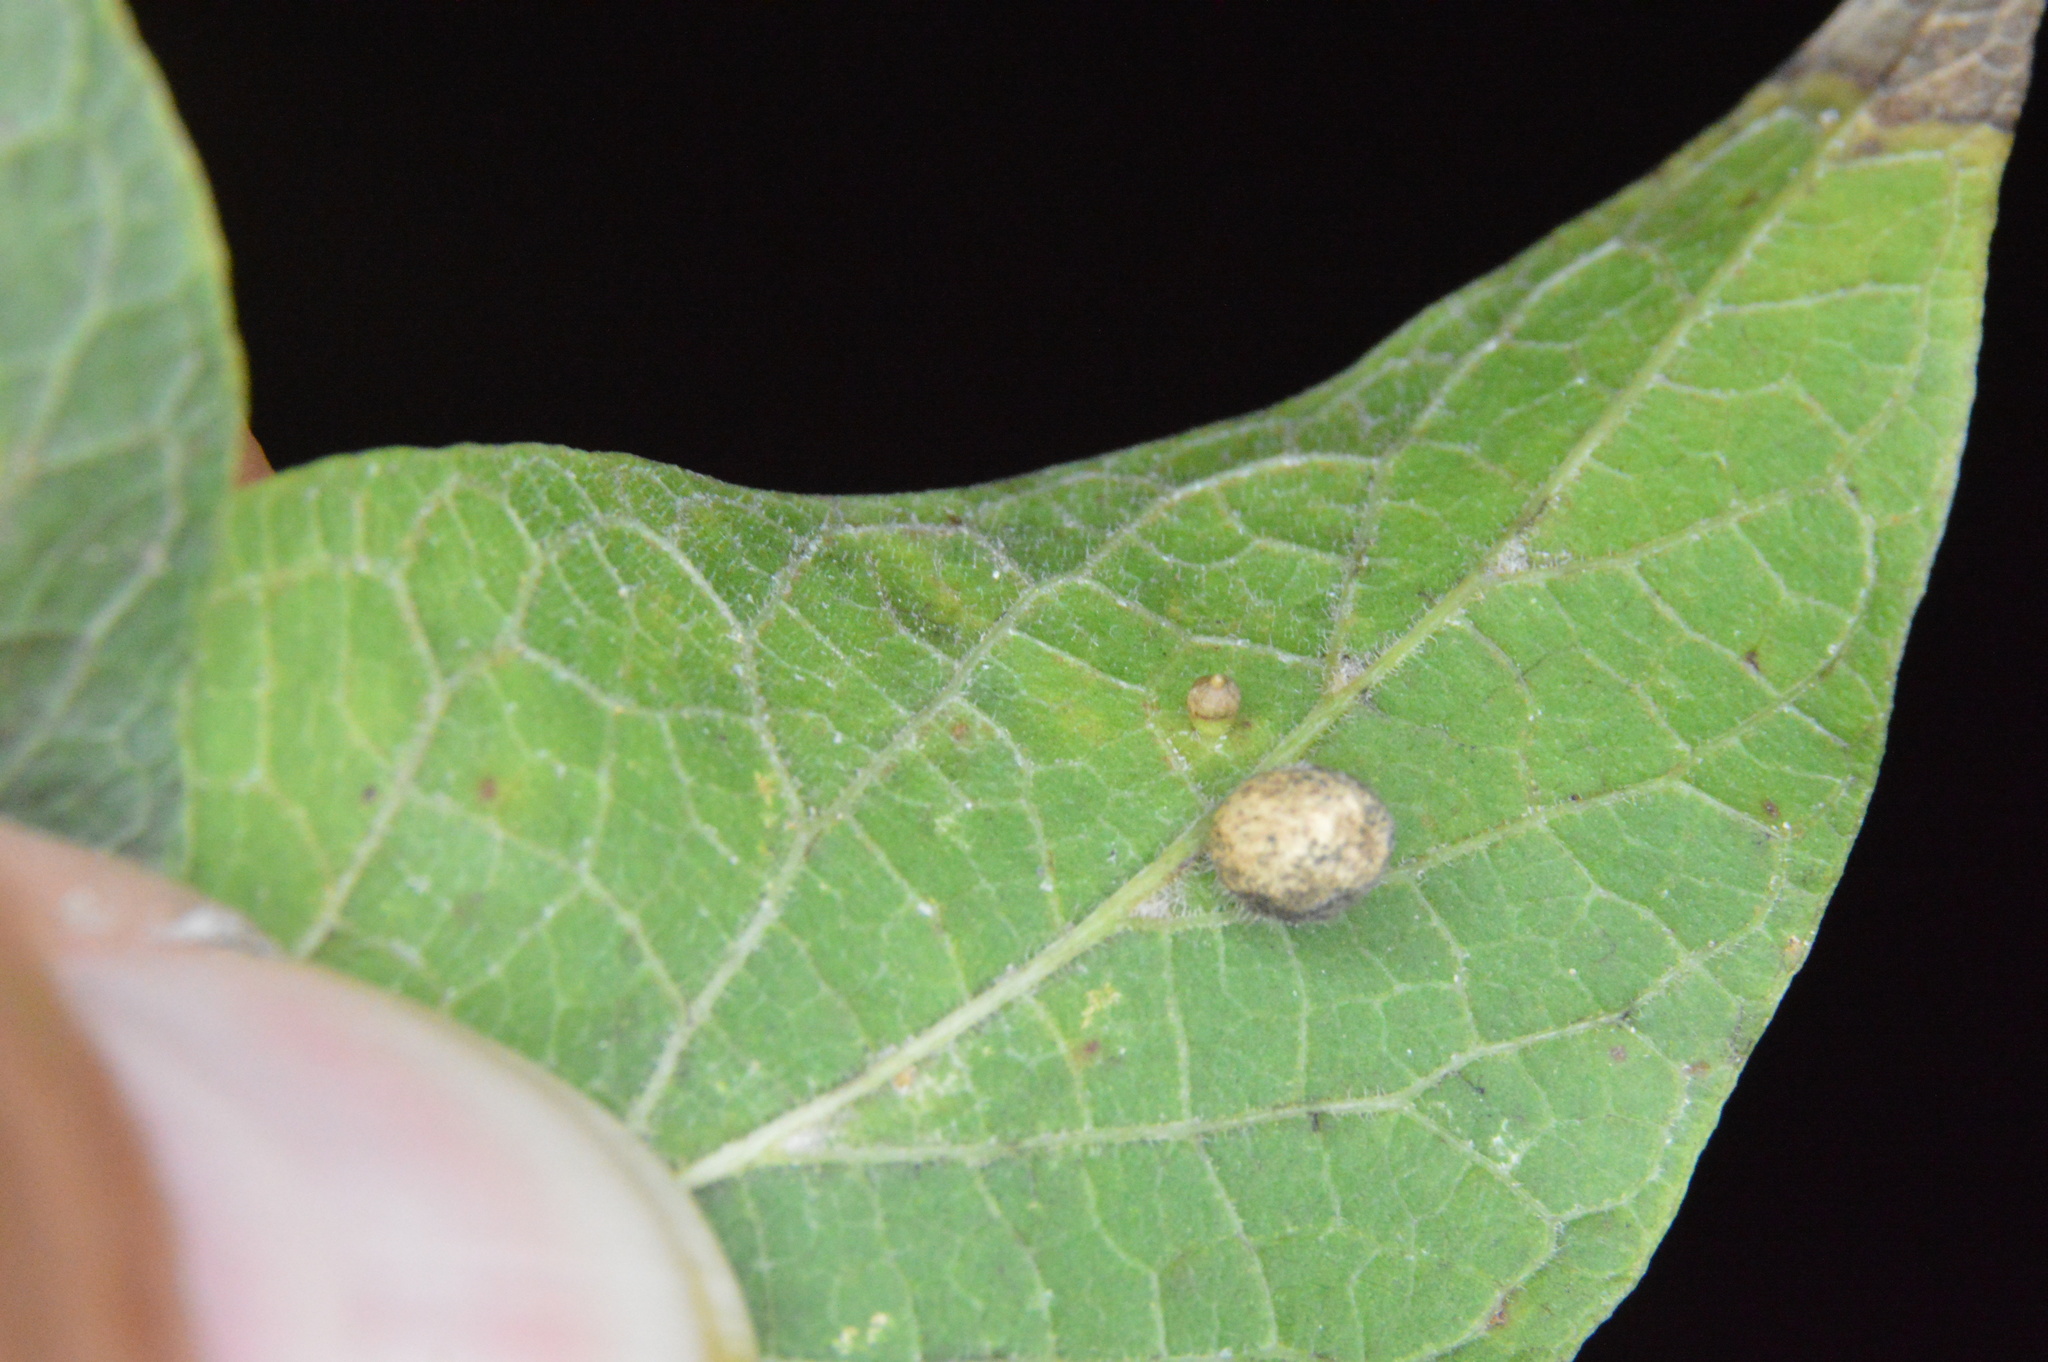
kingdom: Animalia
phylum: Arthropoda
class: Insecta
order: Diptera
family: Cecidomyiidae
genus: Celticecis
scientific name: Celticecis pubescens
